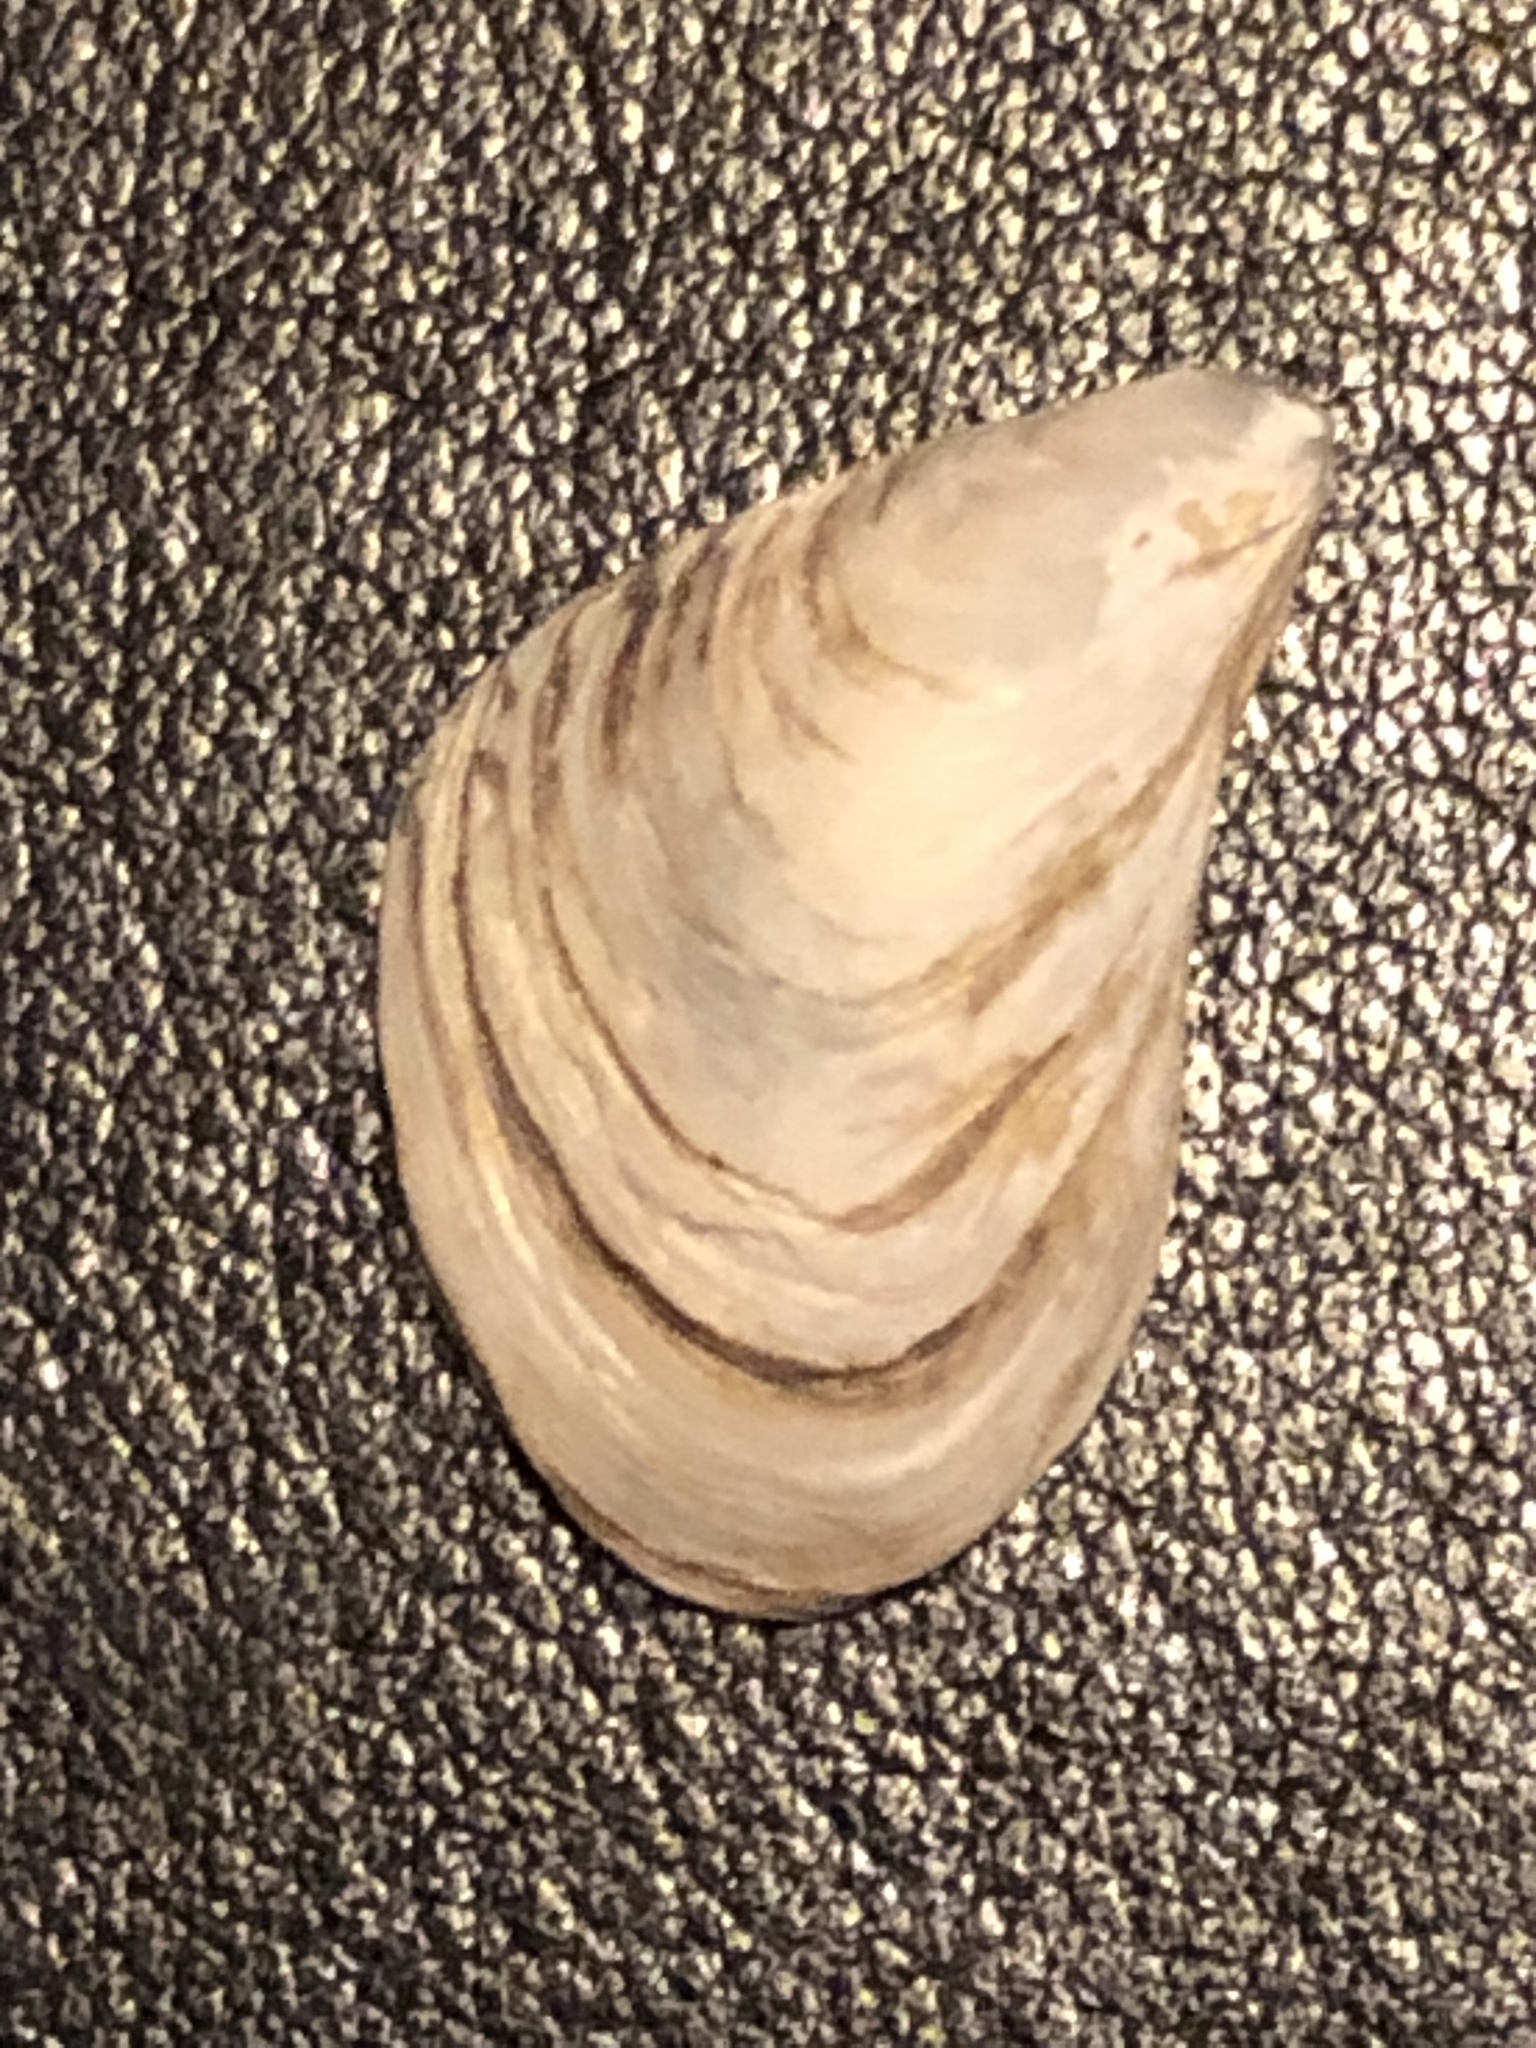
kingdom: Animalia
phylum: Mollusca
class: Bivalvia
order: Myida
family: Dreissenidae
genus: Dreissena
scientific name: Dreissena bugensis
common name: Quagga mussel
